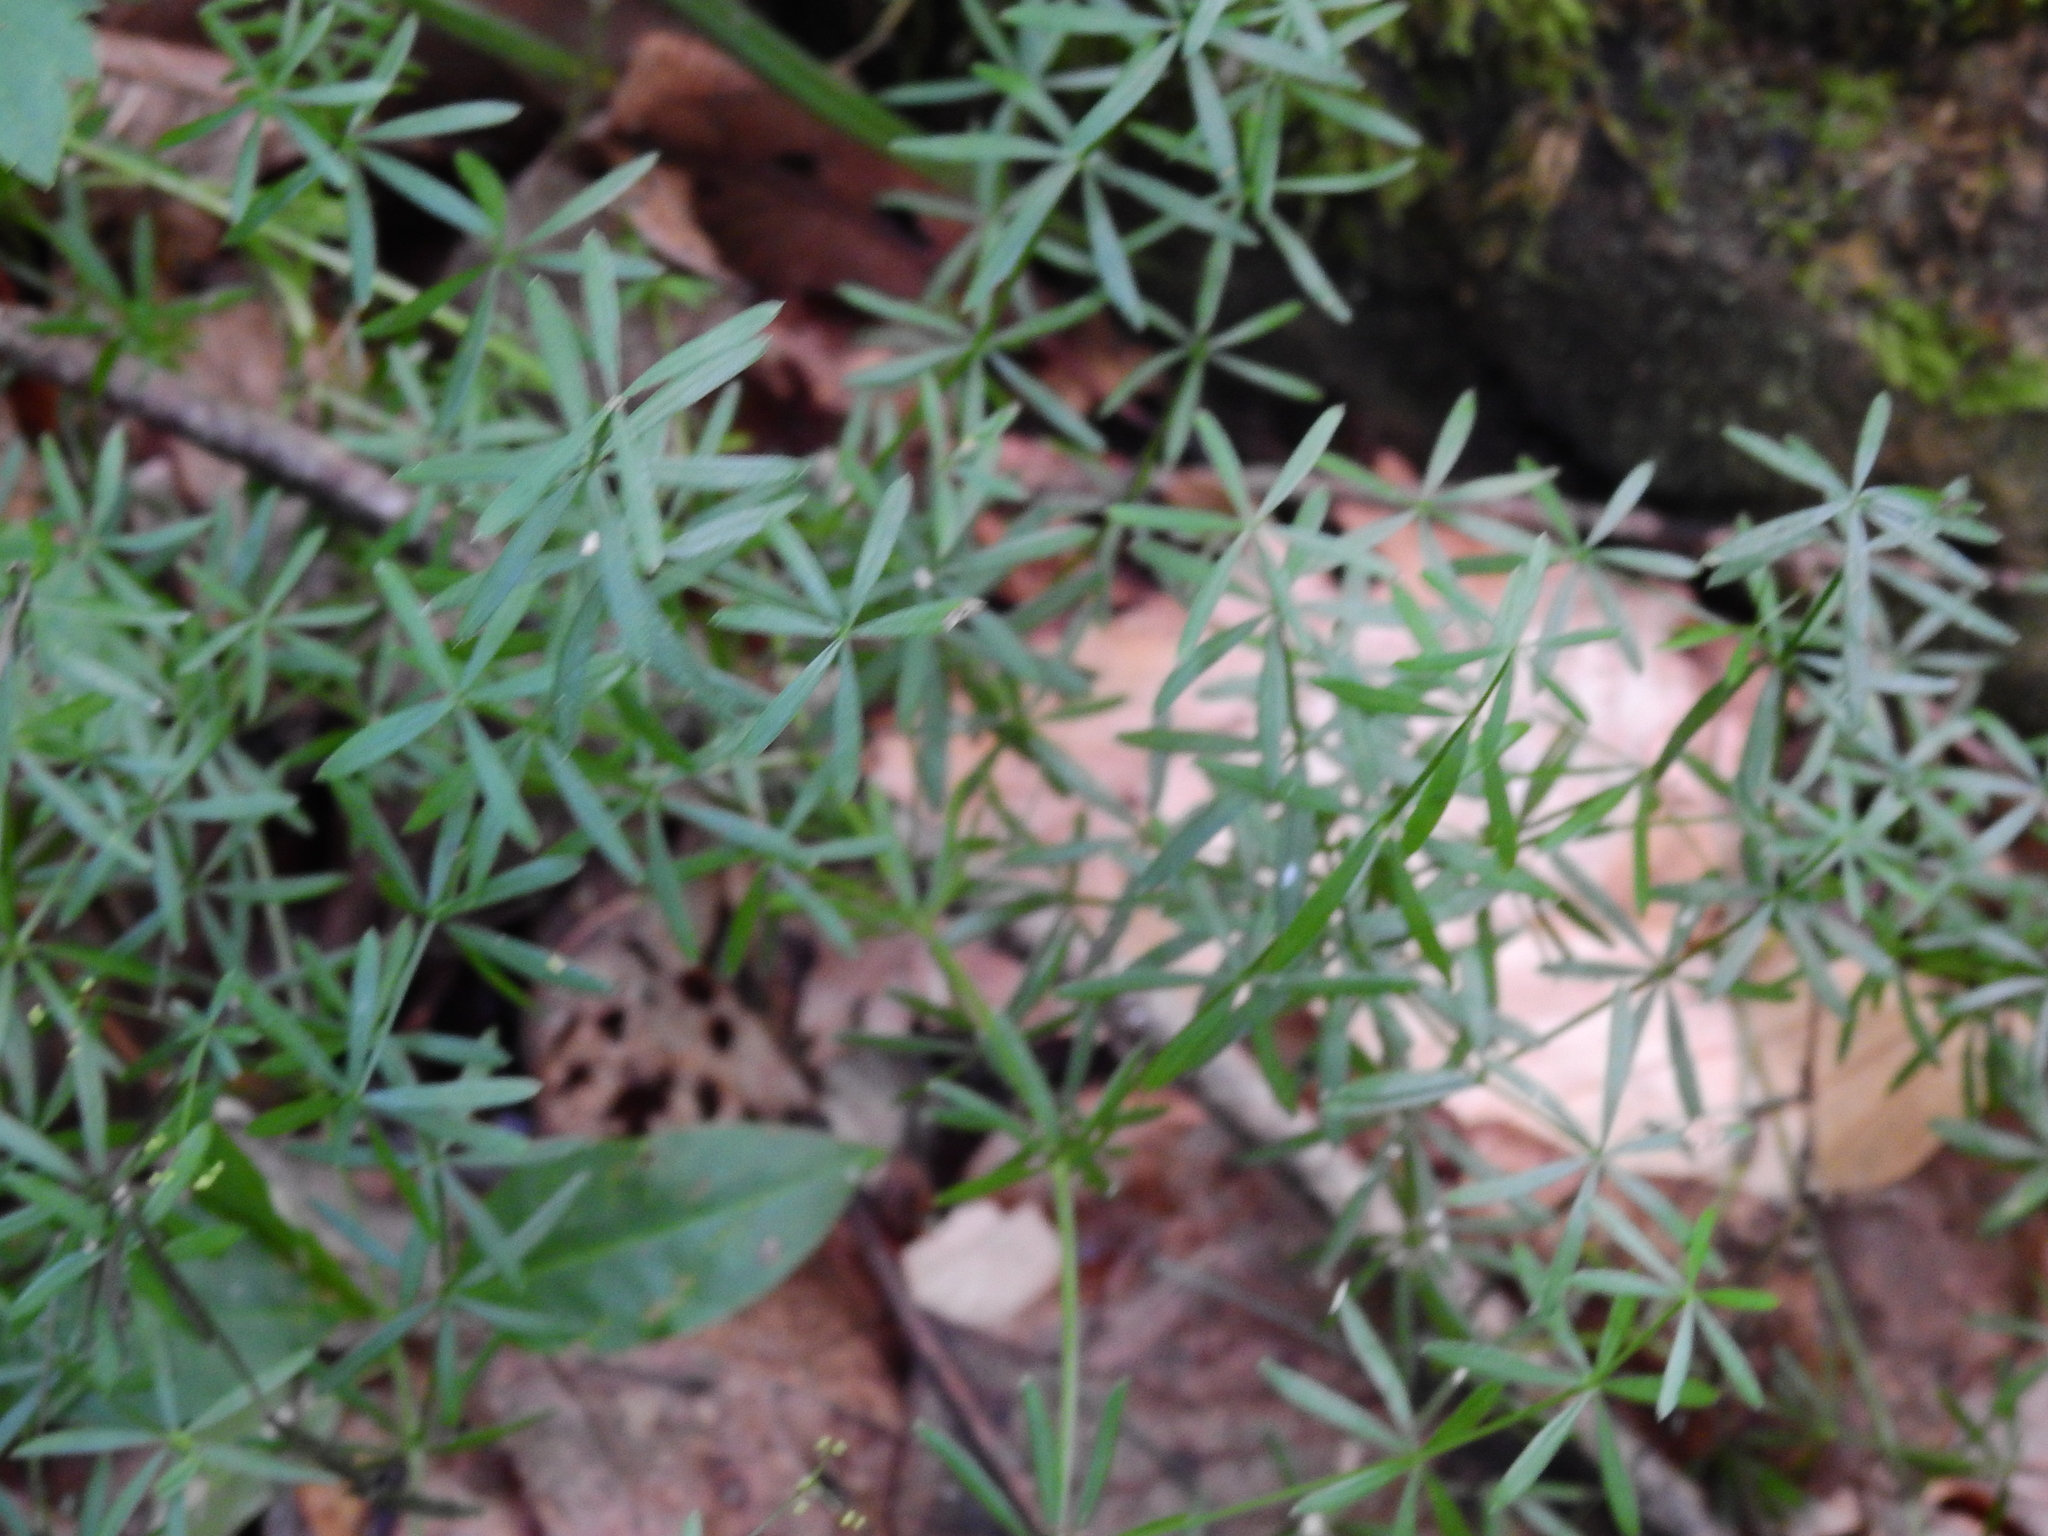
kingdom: Plantae
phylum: Tracheophyta
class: Magnoliopsida
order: Gentianales
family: Rubiaceae
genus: Galium
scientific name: Galium concinnum
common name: Shining bedstraw
